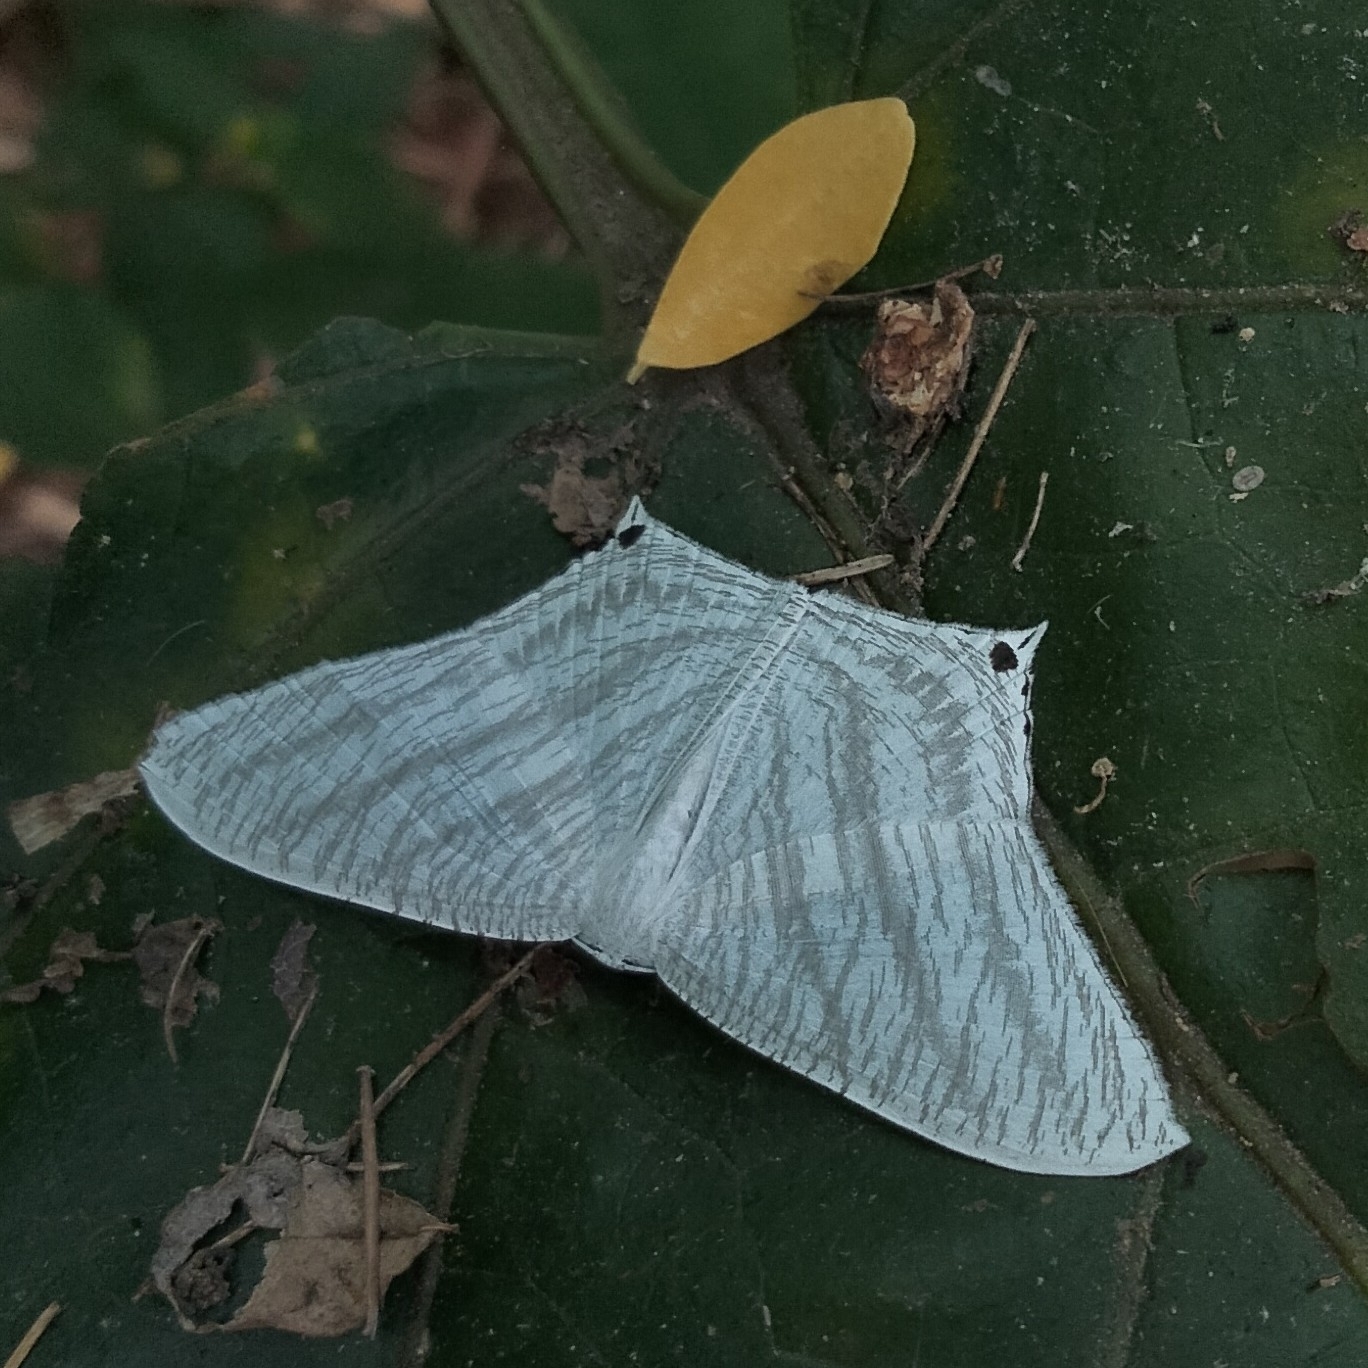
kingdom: Animalia
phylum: Arthropoda
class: Insecta
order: Lepidoptera
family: Uraniidae
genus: Micronia
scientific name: Micronia aculeata
